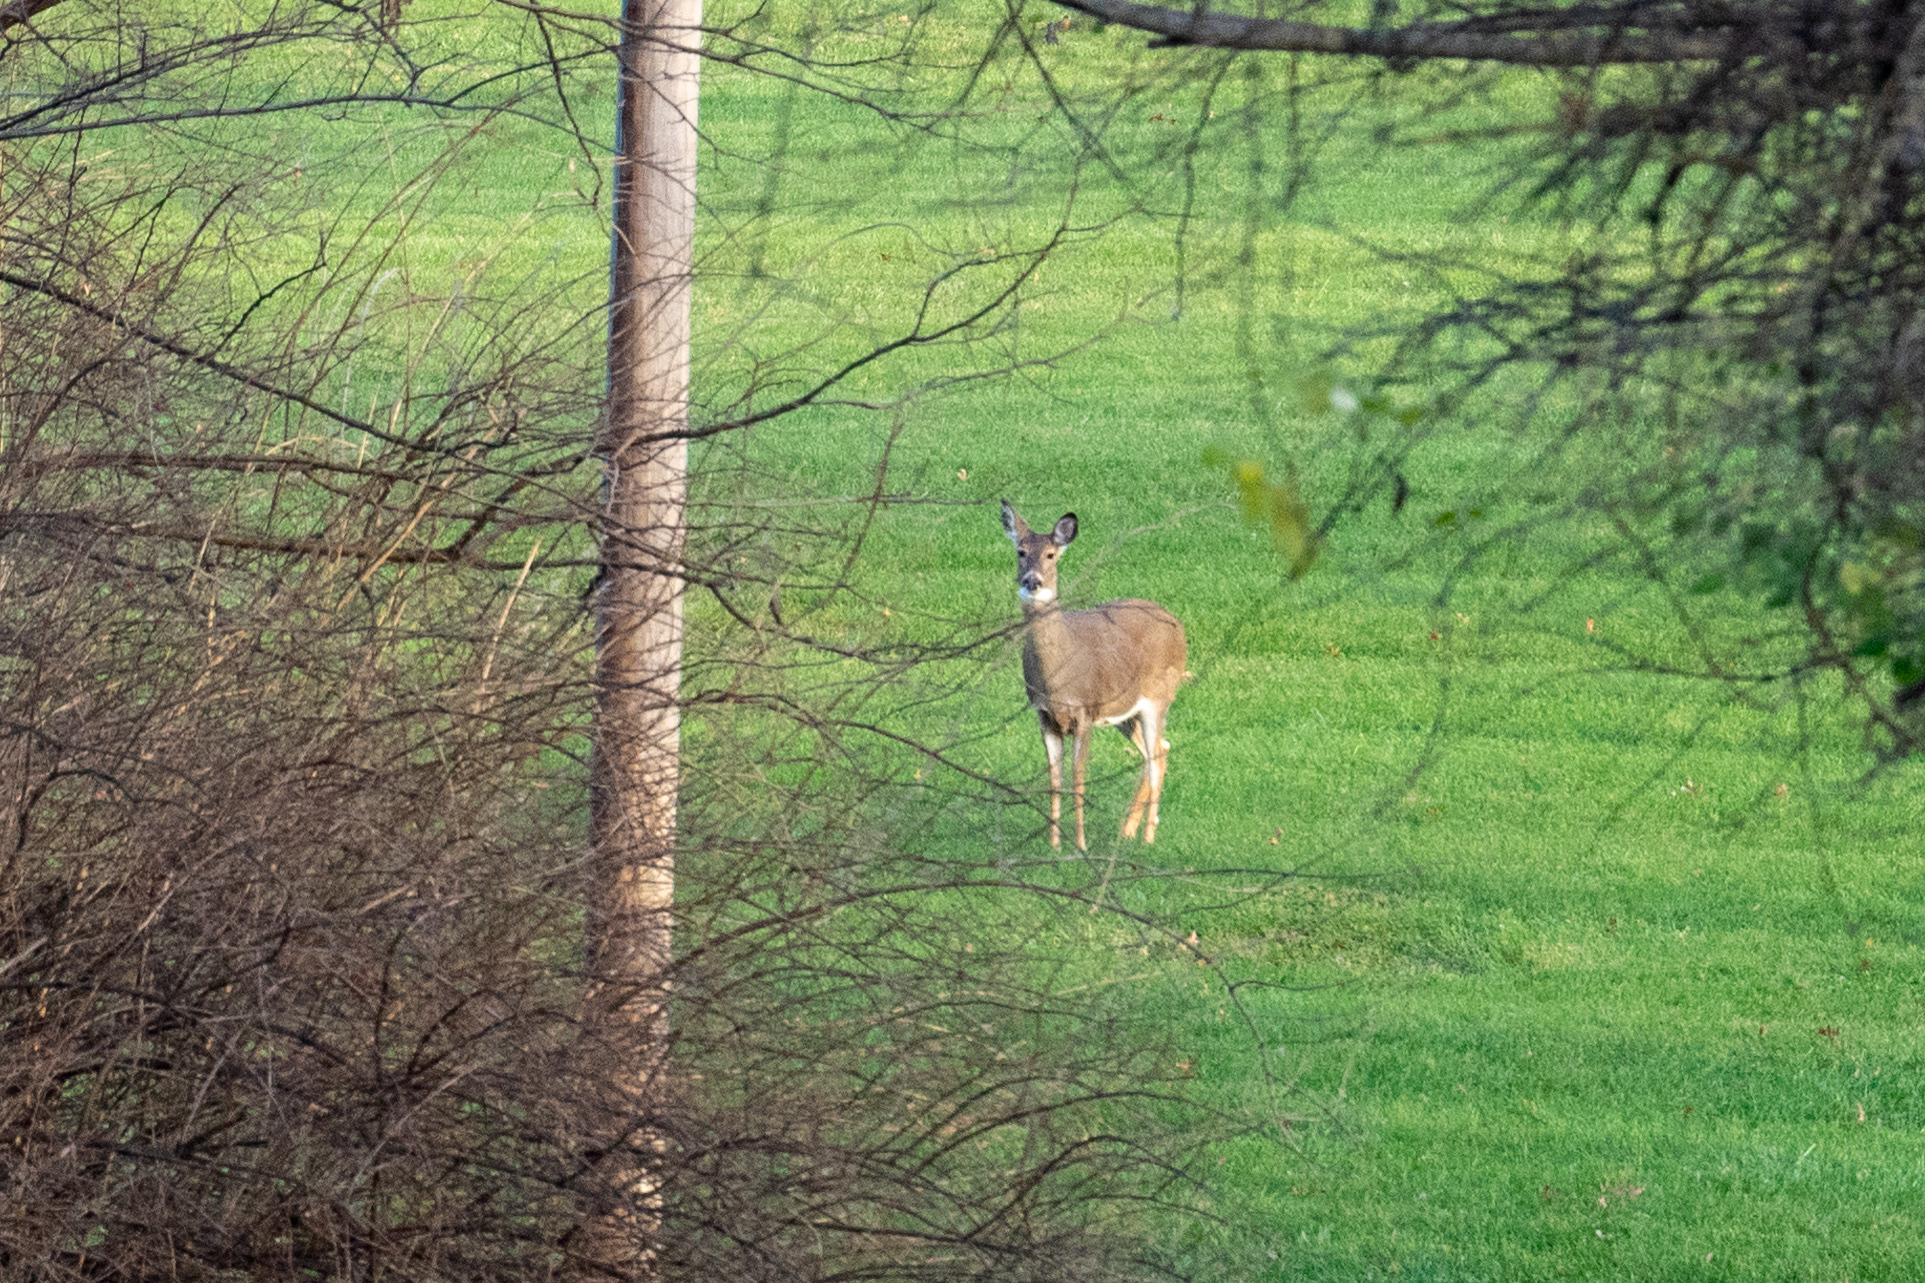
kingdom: Animalia
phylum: Chordata
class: Mammalia
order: Artiodactyla
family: Cervidae
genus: Odocoileus
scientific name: Odocoileus virginianus
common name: White-tailed deer
